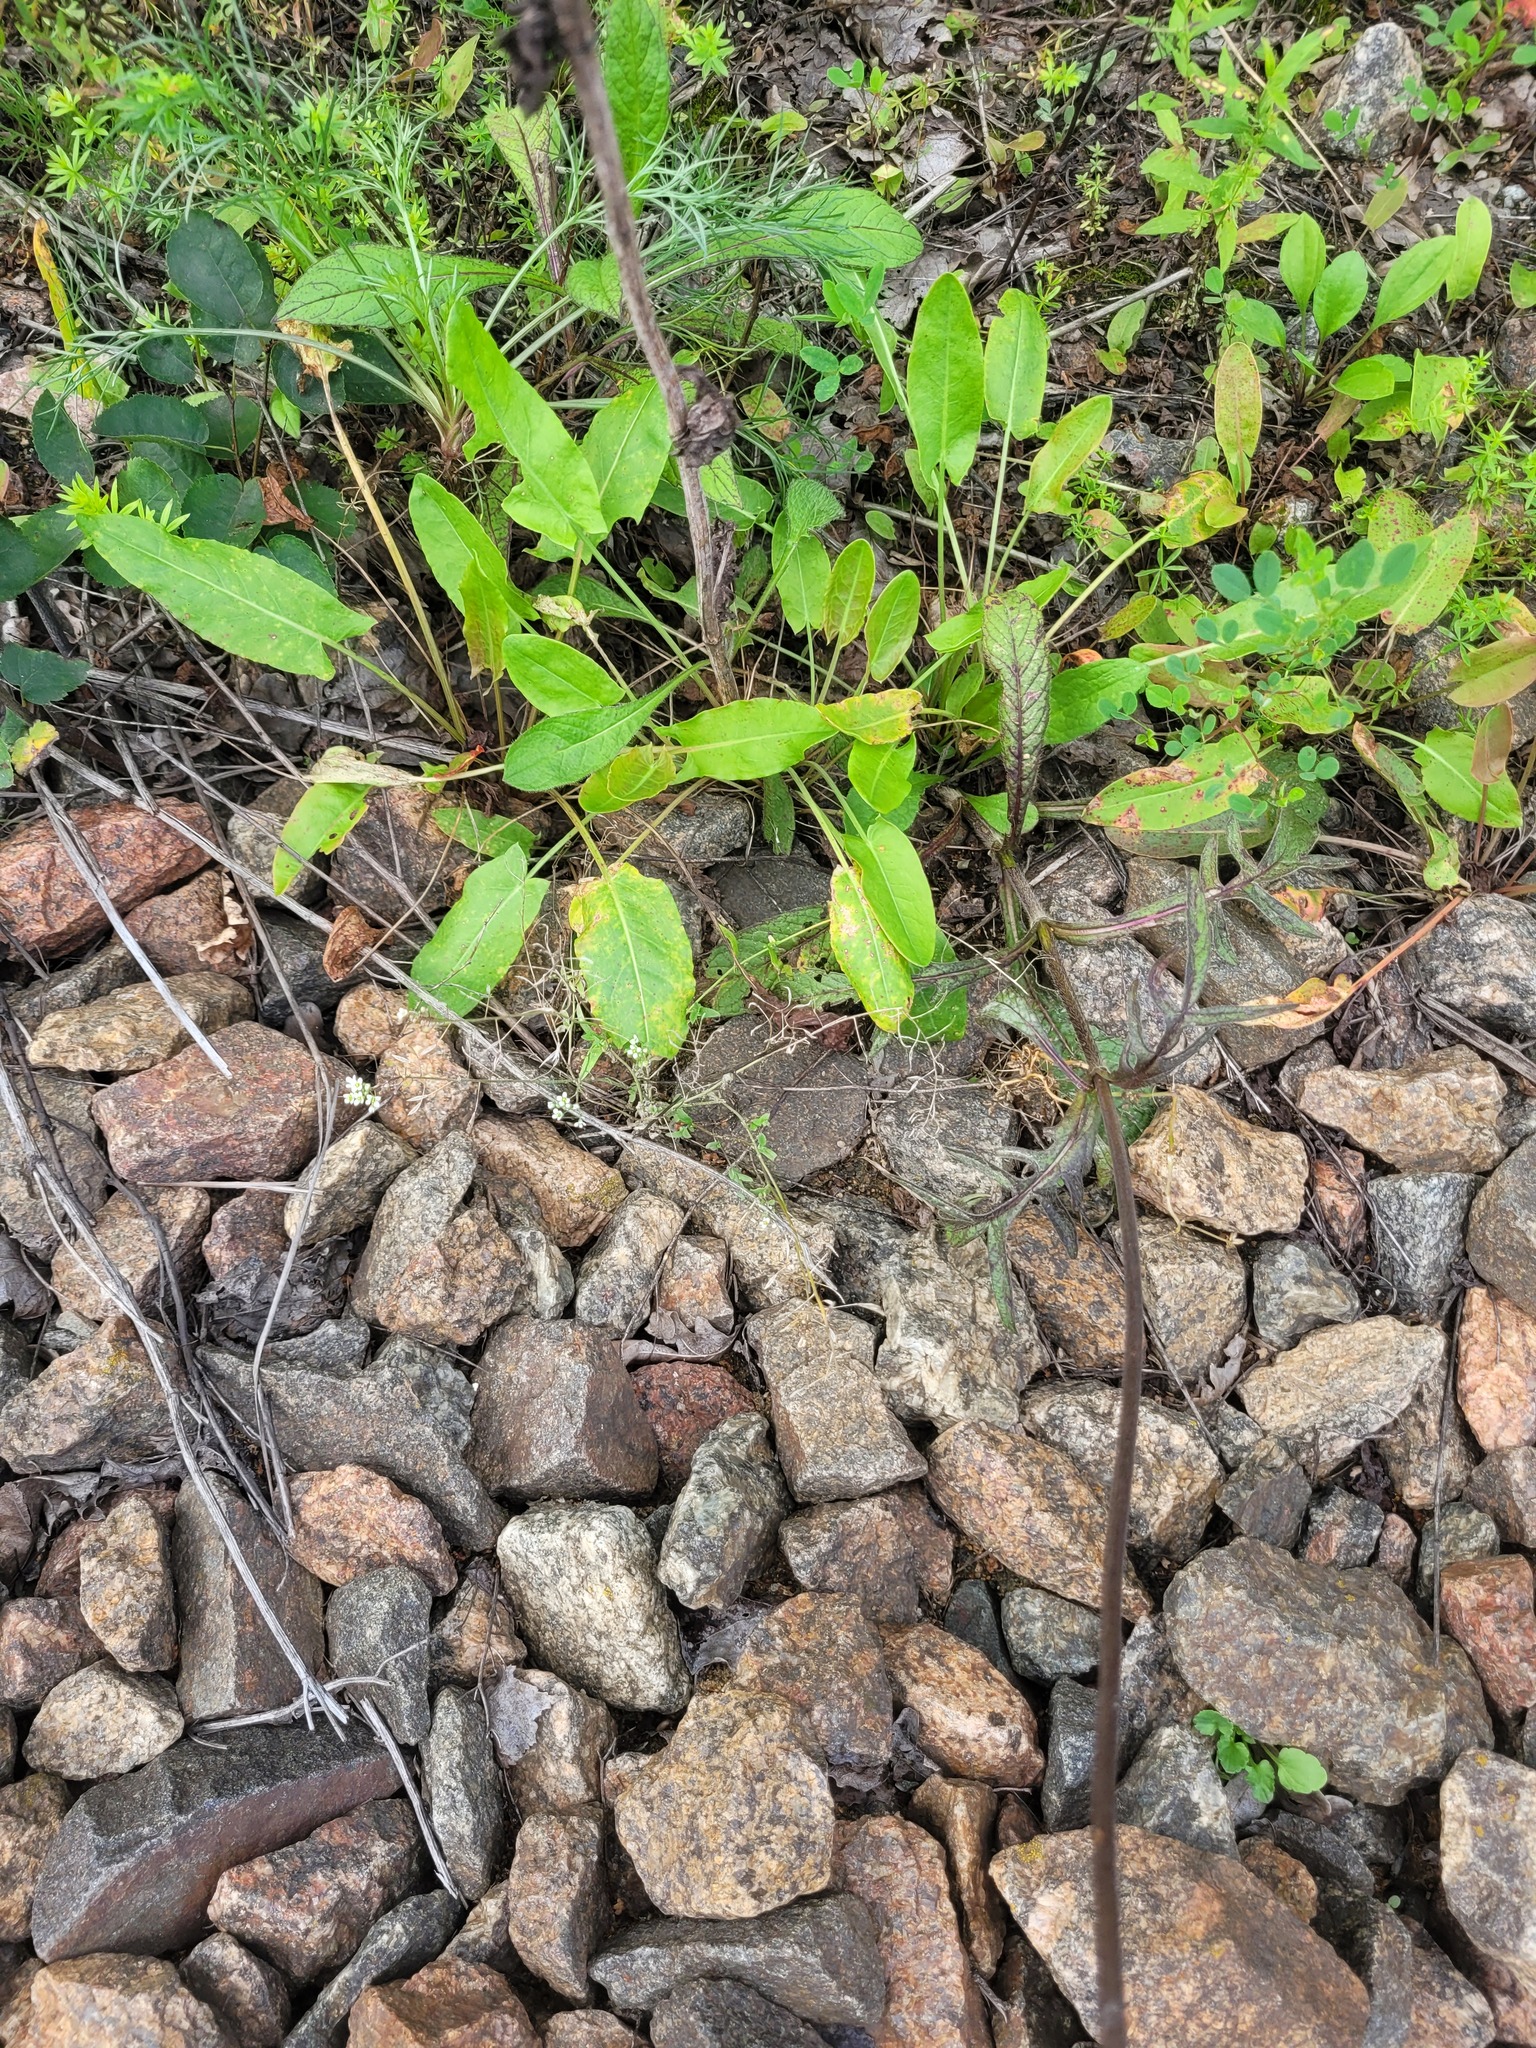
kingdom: Plantae
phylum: Tracheophyta
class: Magnoliopsida
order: Brassicales
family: Brassicaceae
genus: Capsella
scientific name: Capsella bursa-pastoris
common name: Shepherd's purse
